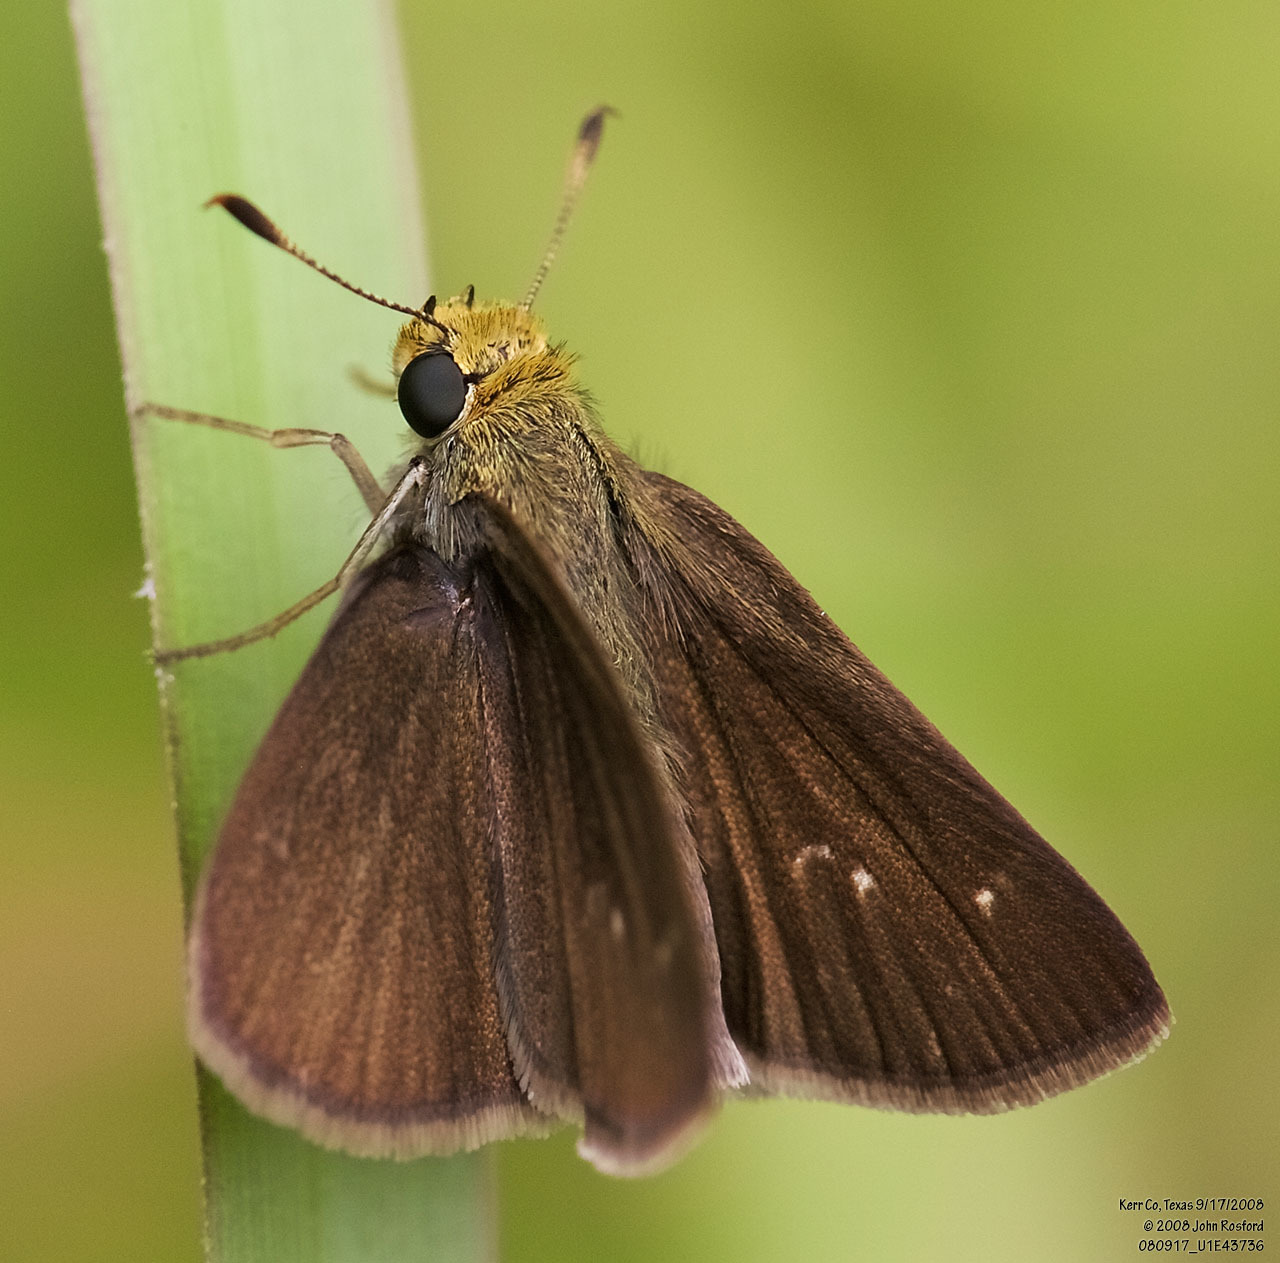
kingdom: Animalia
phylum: Arthropoda
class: Insecta
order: Lepidoptera
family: Hesperiidae
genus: Euphyes
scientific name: Euphyes vestris
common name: Dun skipper
